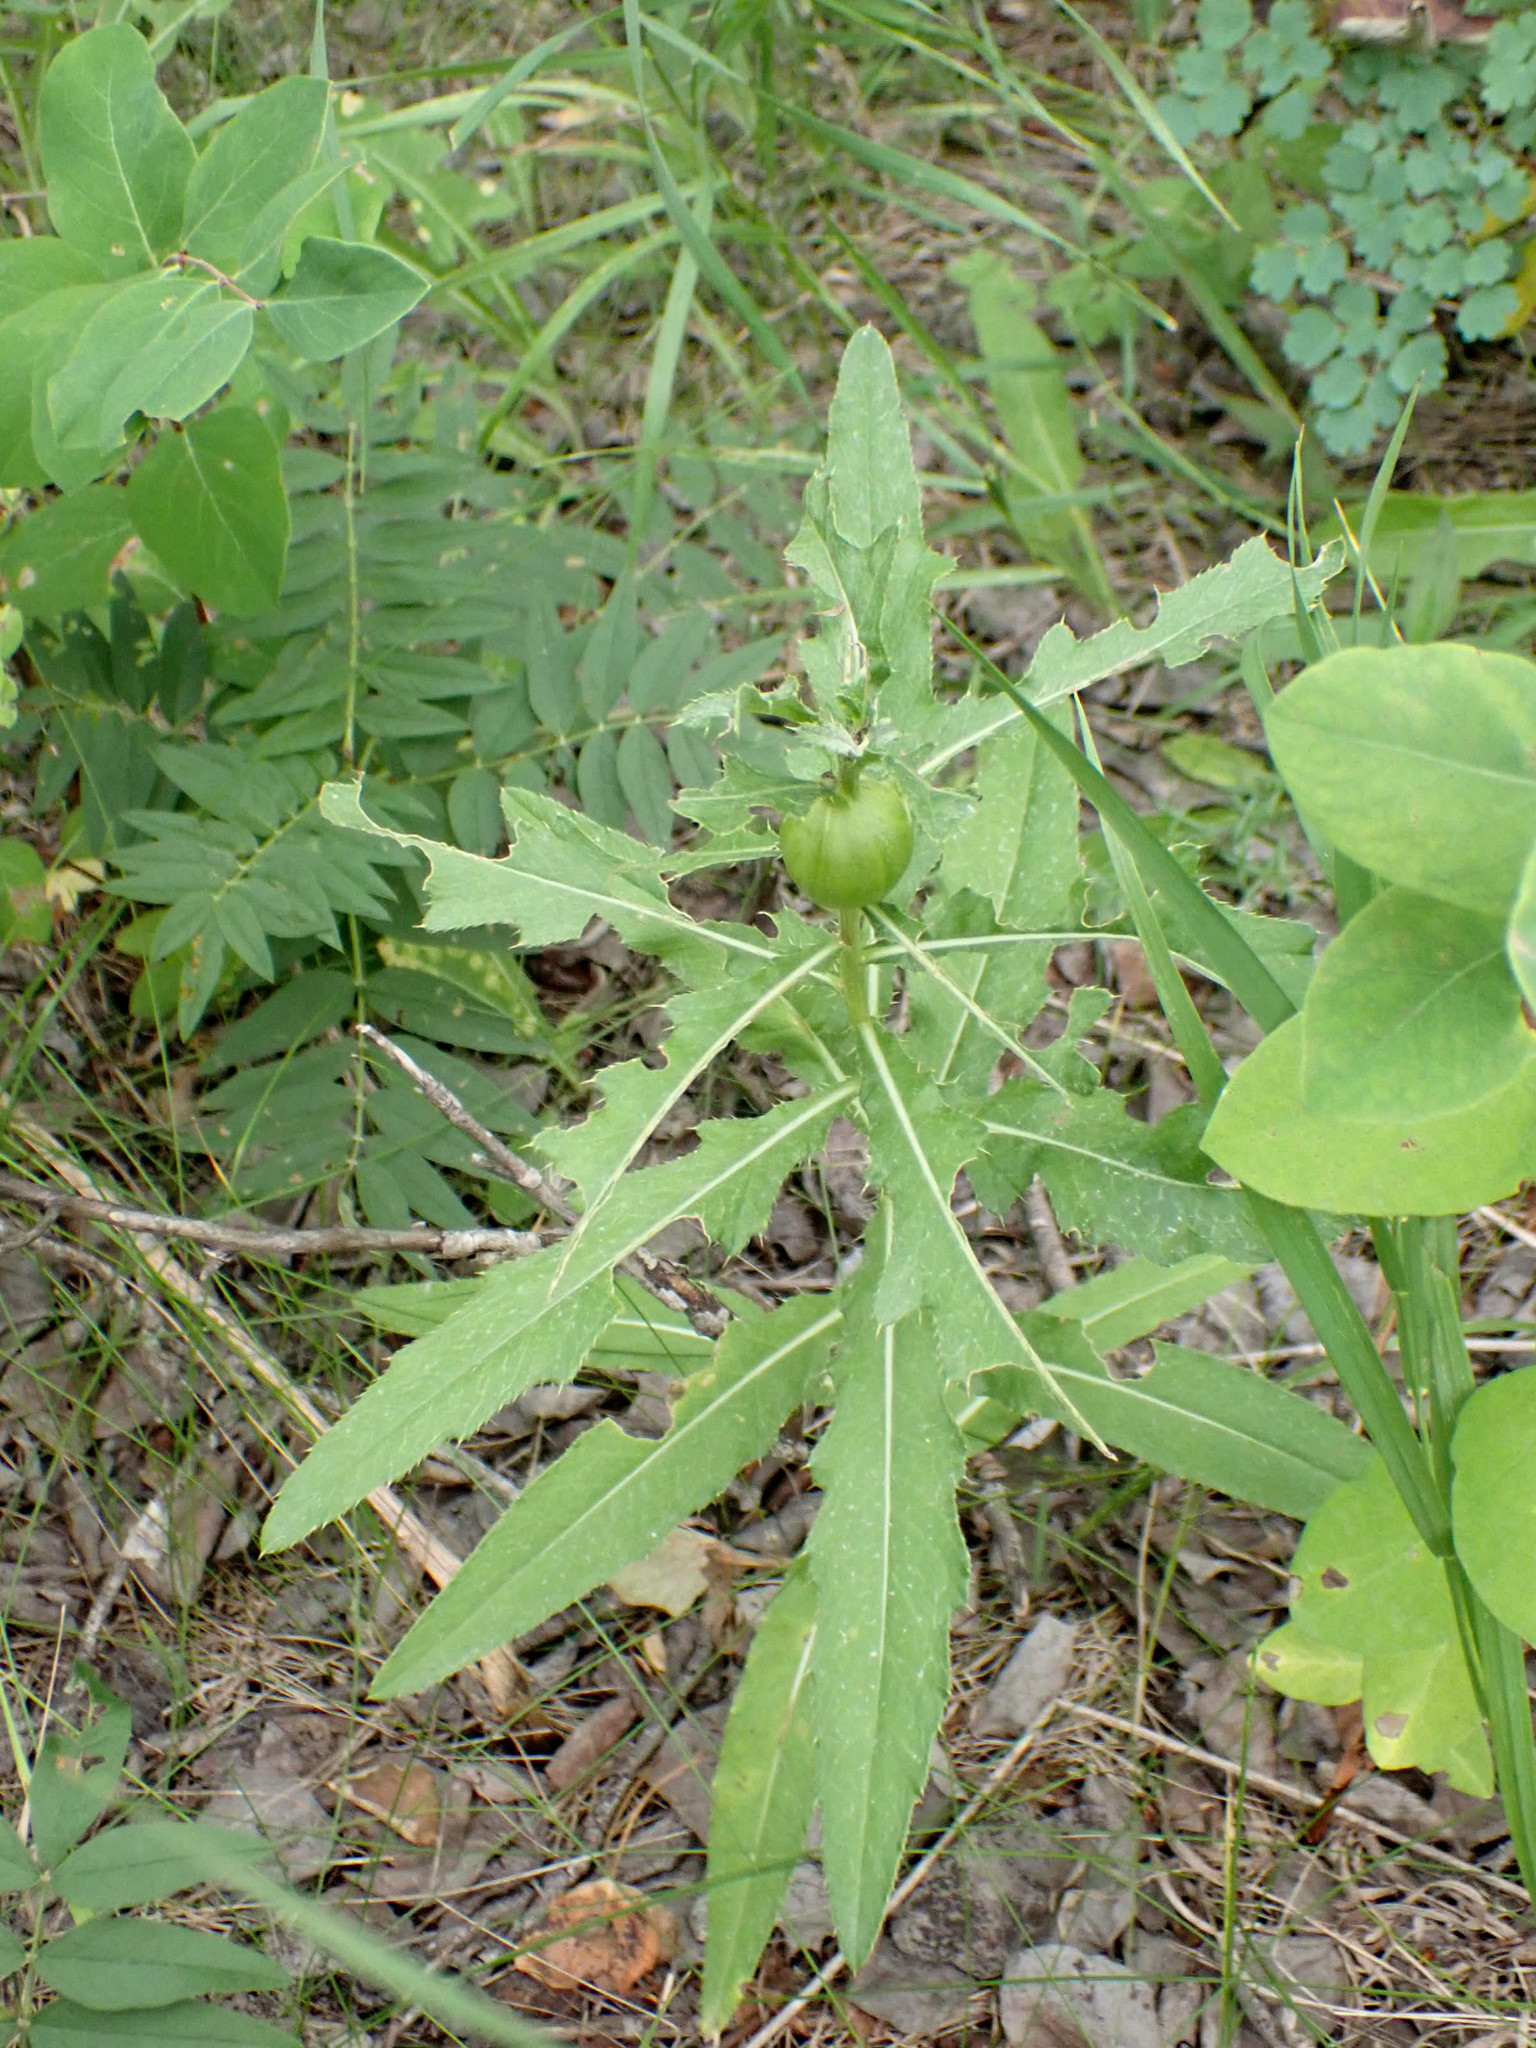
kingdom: Animalia
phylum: Arthropoda
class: Insecta
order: Diptera
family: Tephritidae
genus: Urophora
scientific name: Urophora cardui
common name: Fruit fly
